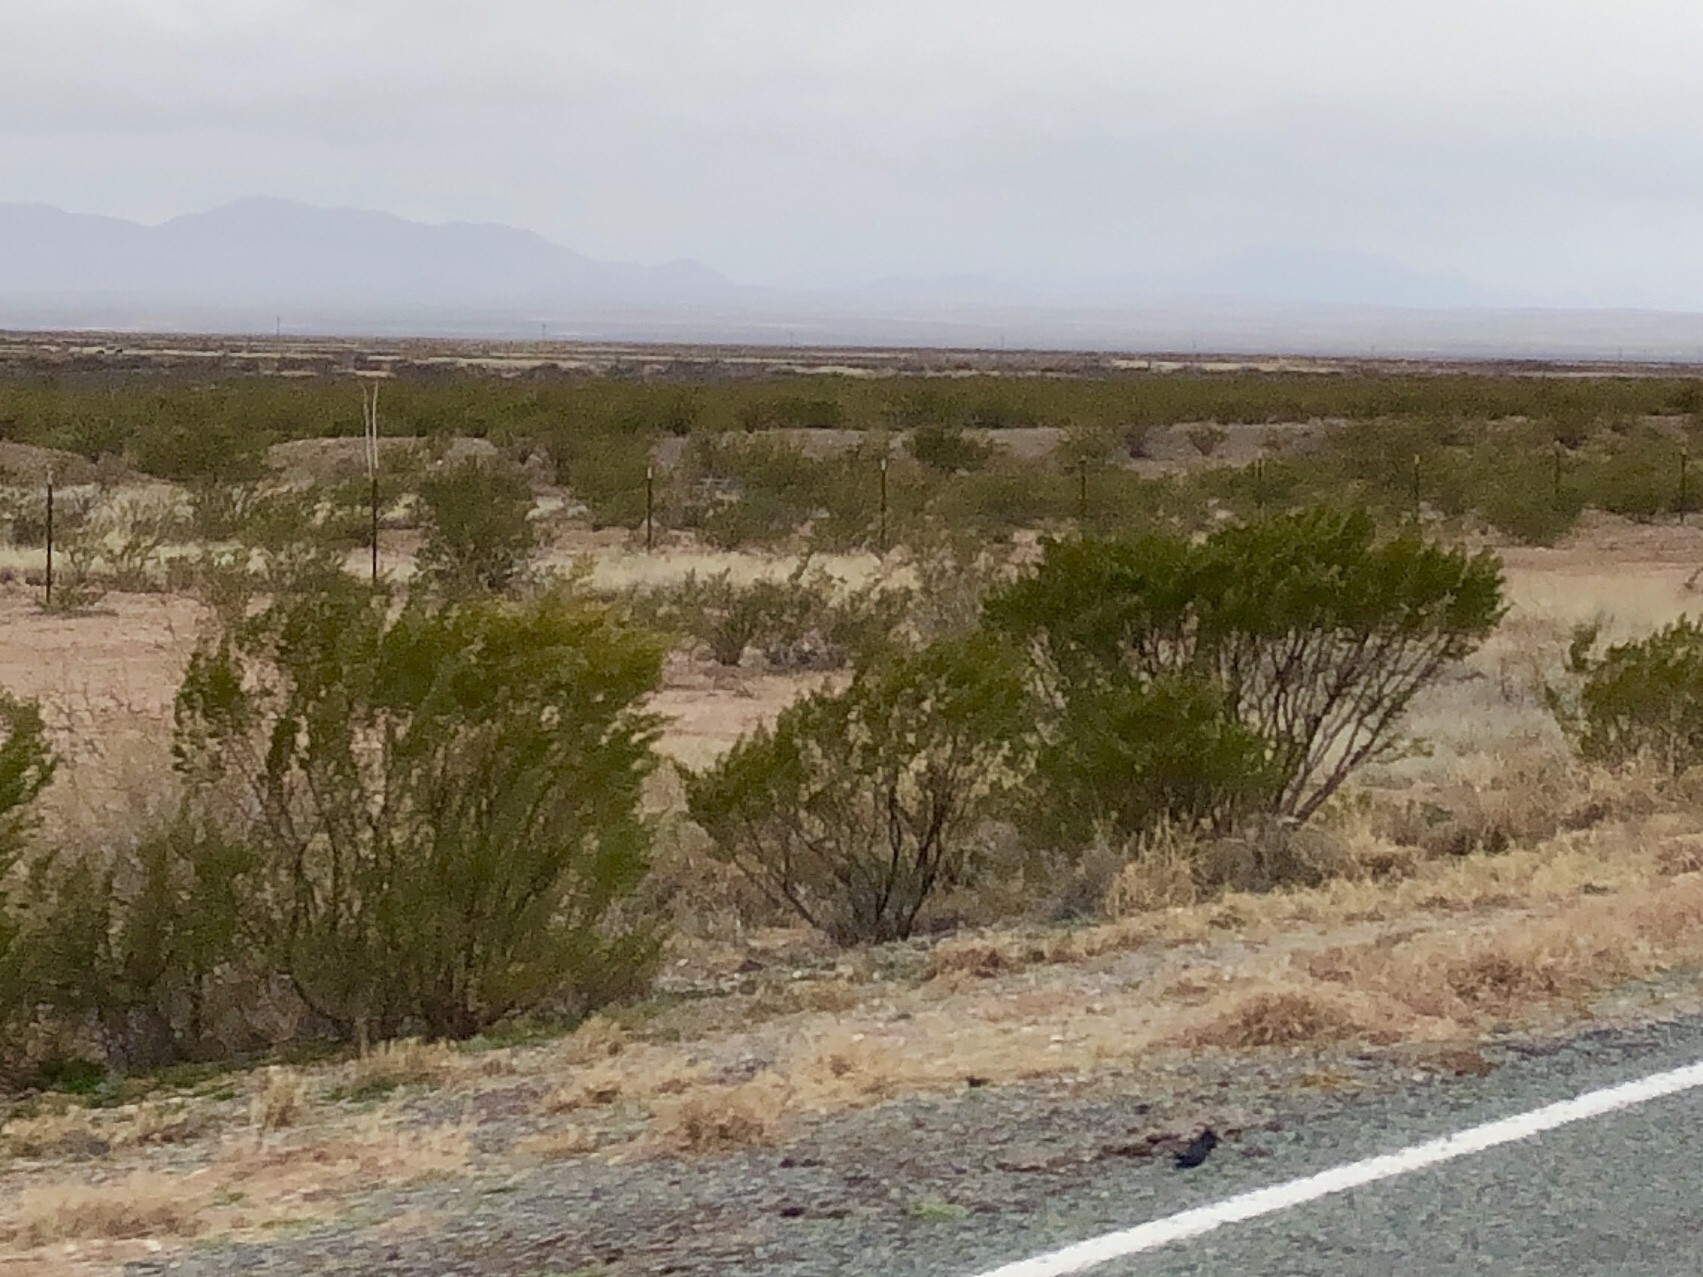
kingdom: Plantae
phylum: Tracheophyta
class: Magnoliopsida
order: Zygophyllales
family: Zygophyllaceae
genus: Larrea
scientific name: Larrea tridentata
